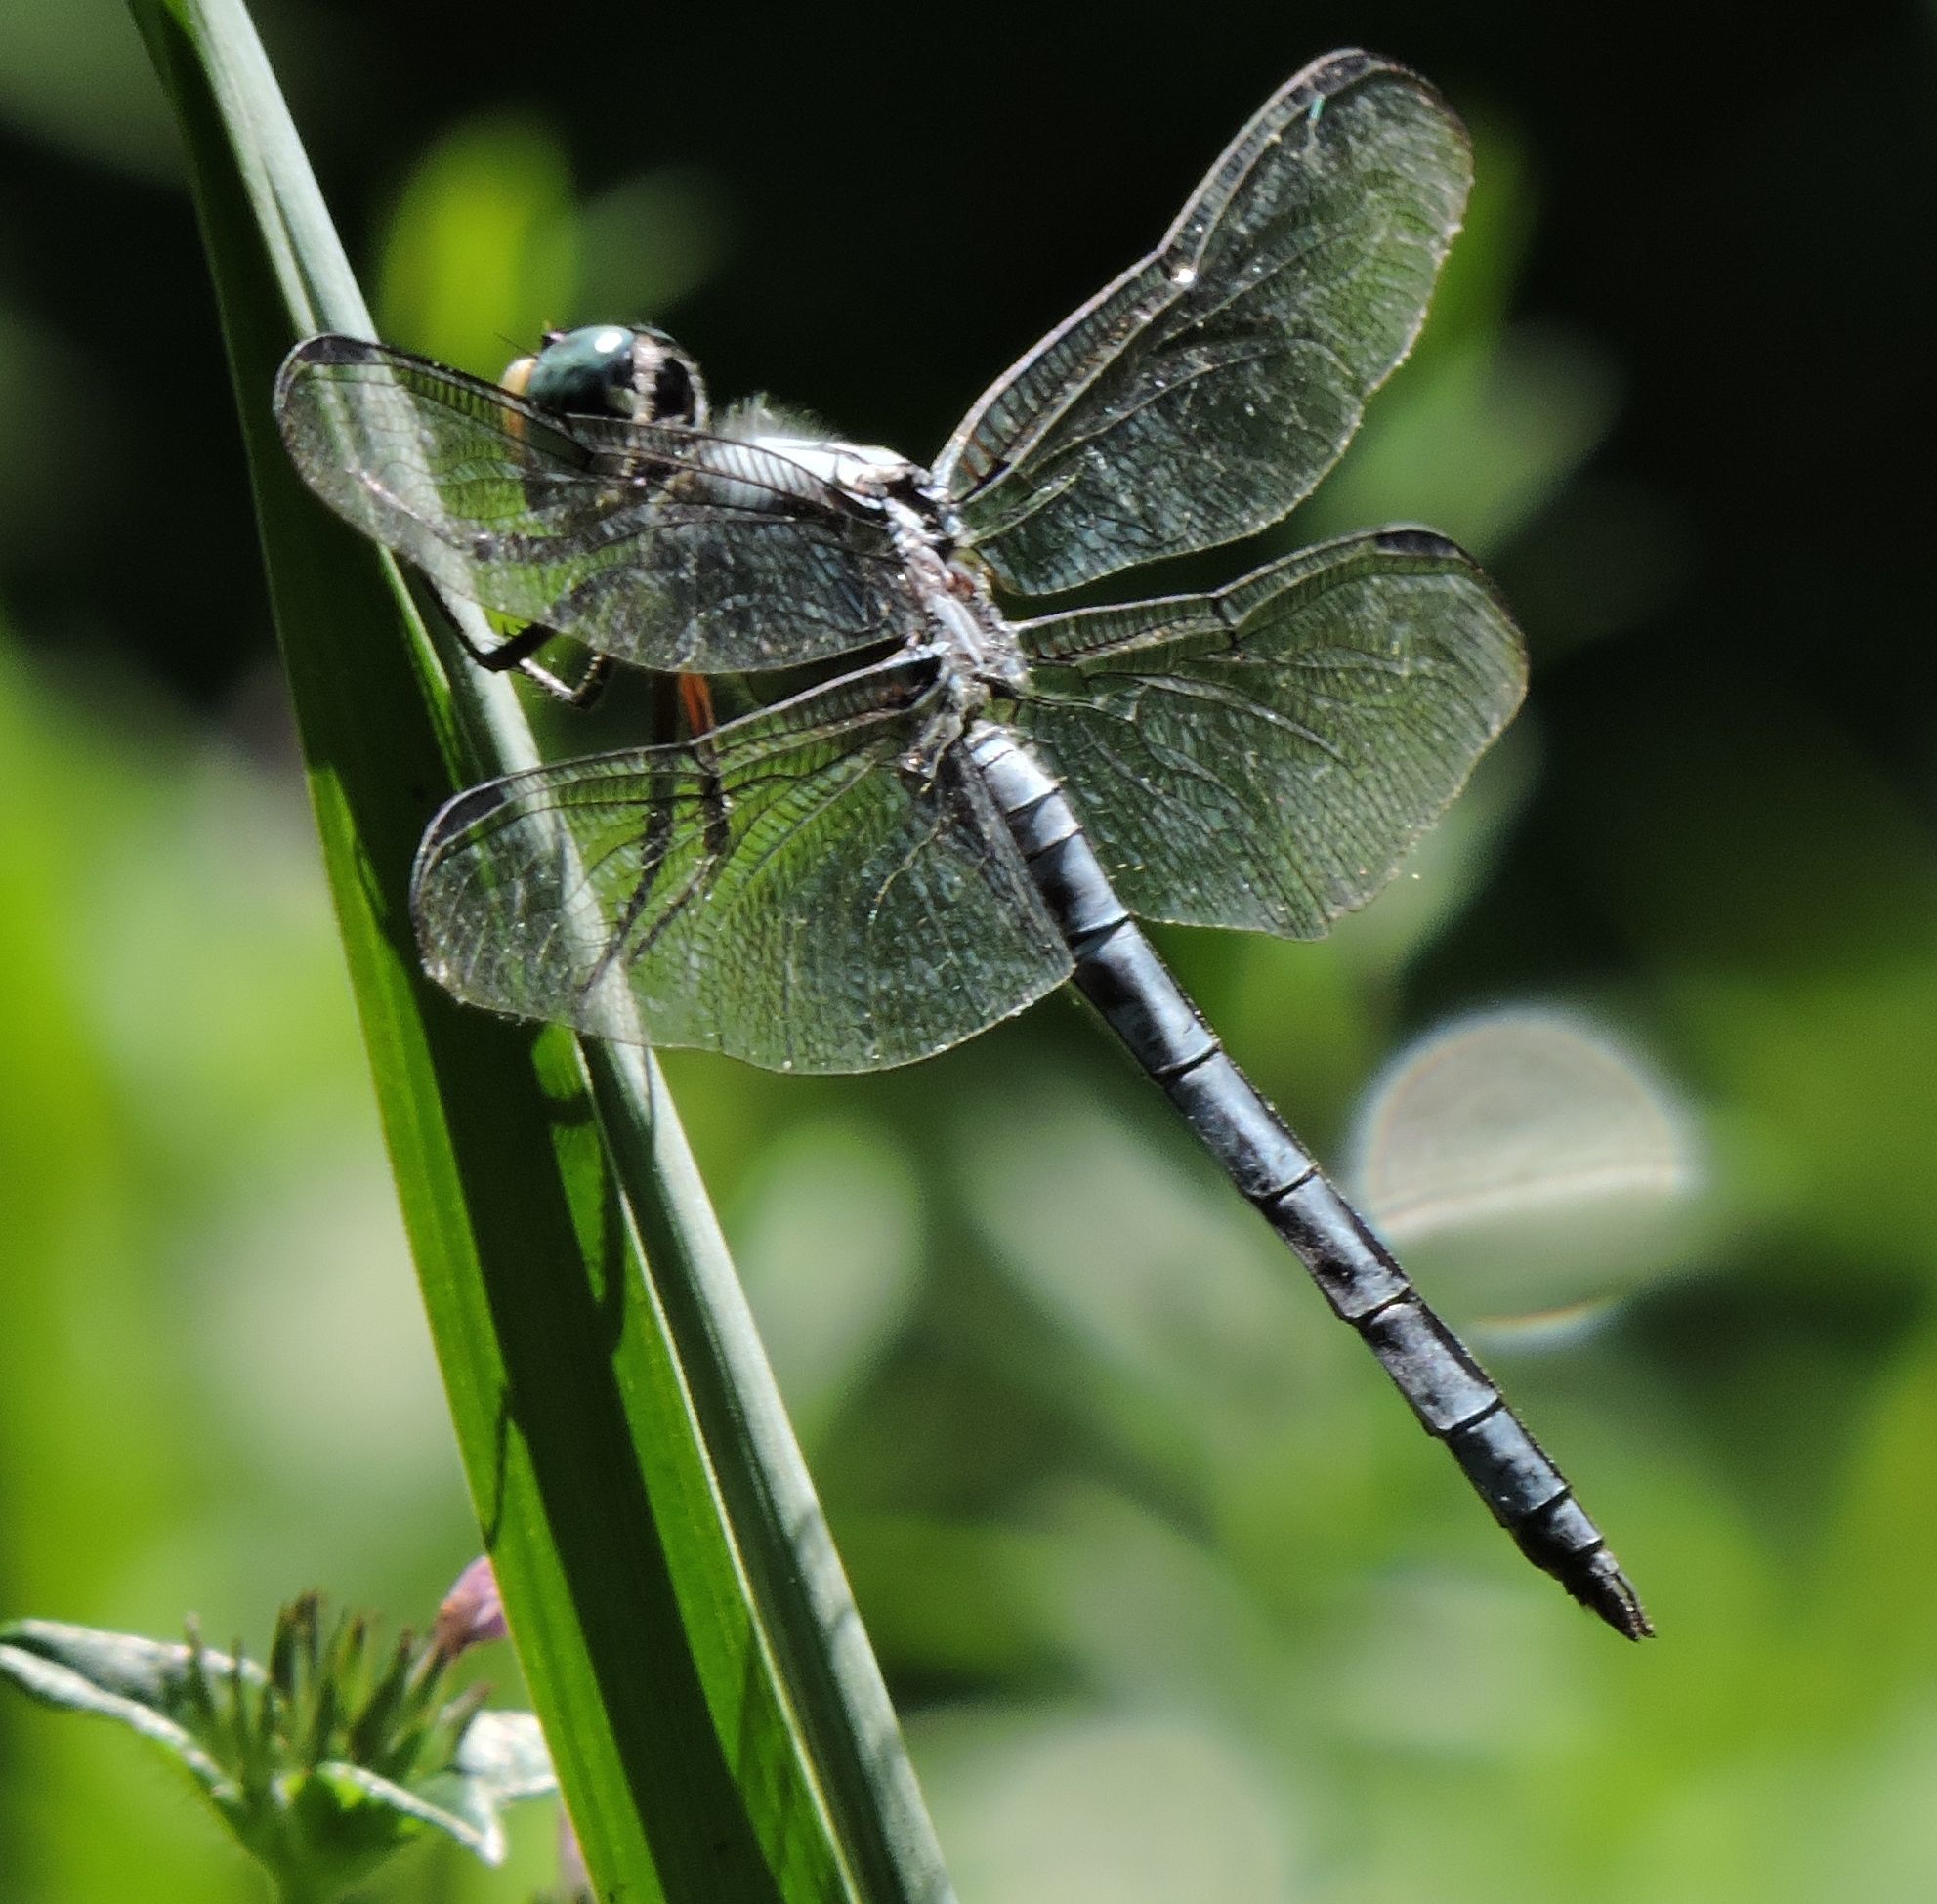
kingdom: Animalia
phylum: Arthropoda
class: Insecta
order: Odonata
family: Libellulidae
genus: Libellula
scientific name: Libellula vibrans
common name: Great blue skimmer
